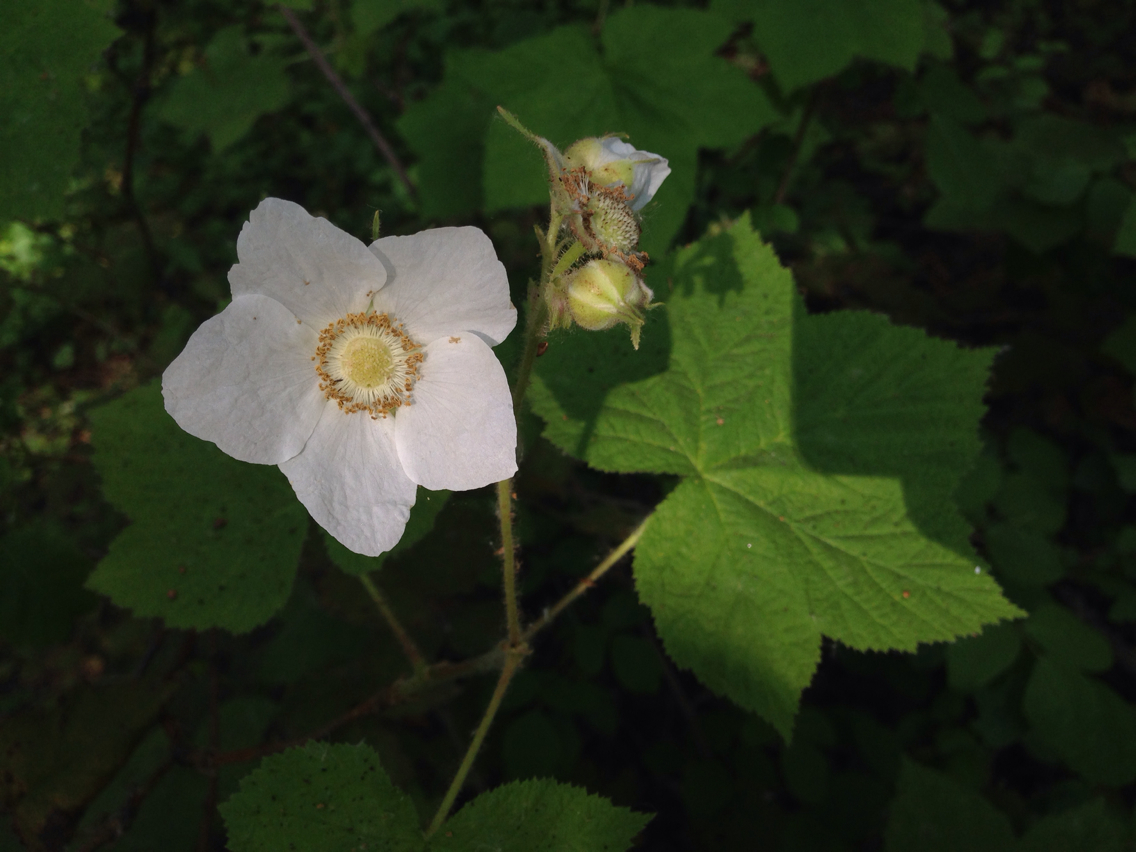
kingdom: Plantae
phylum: Tracheophyta
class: Magnoliopsida
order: Rosales
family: Rosaceae
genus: Rubus
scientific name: Rubus parviflorus
